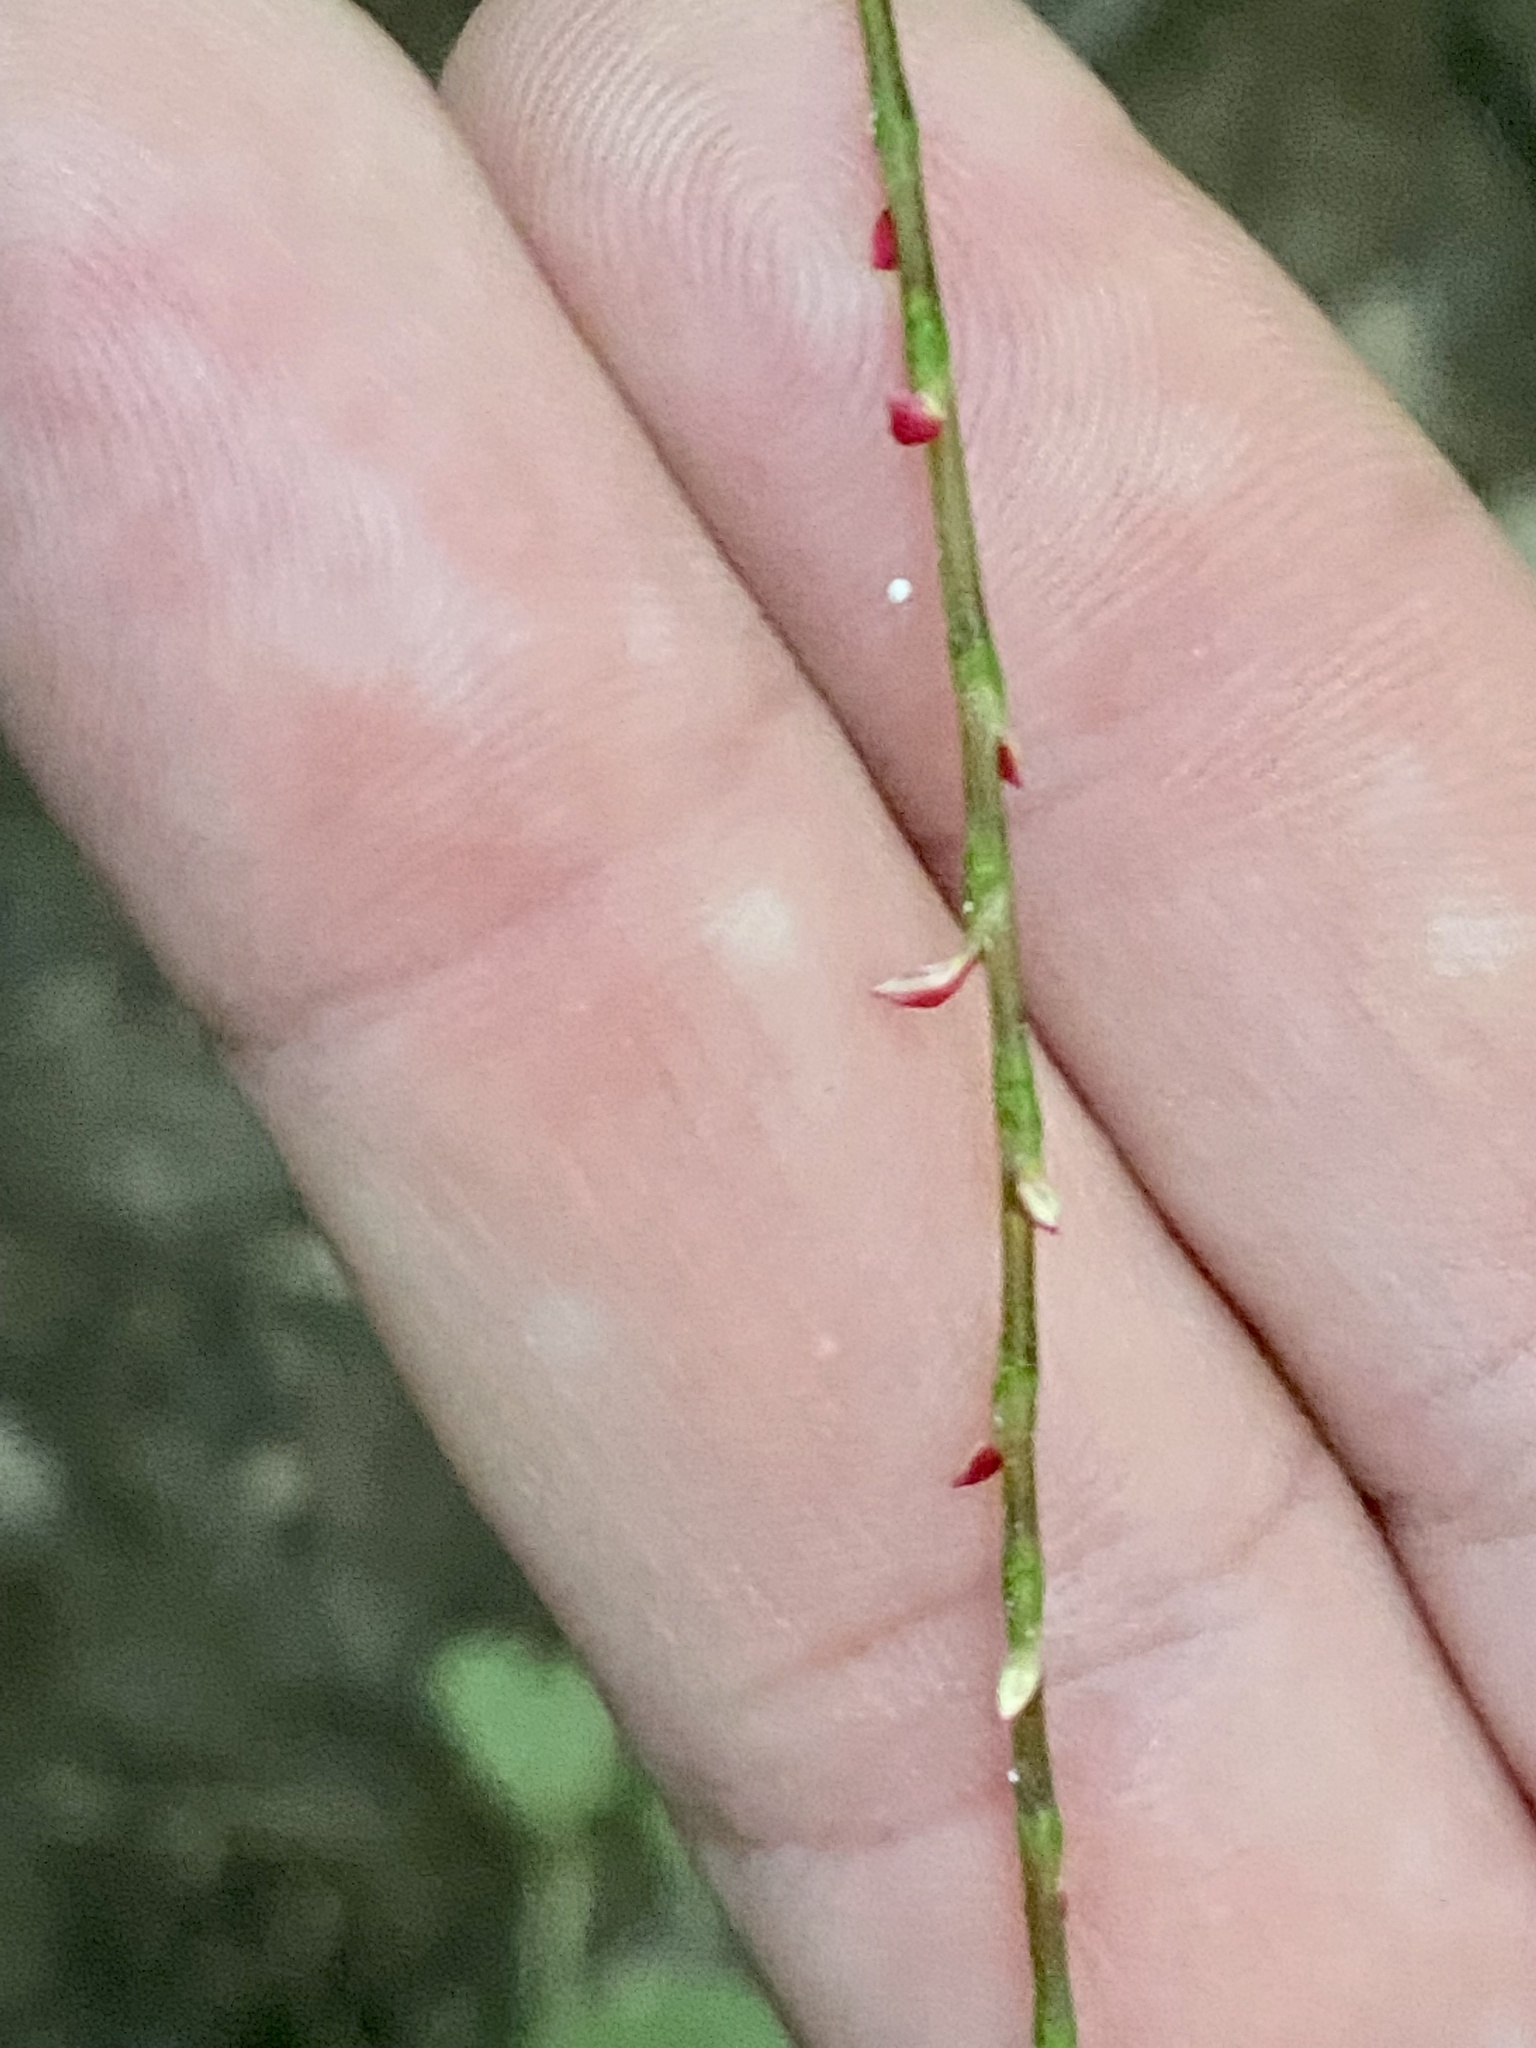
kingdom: Plantae
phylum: Tracheophyta
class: Magnoliopsida
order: Caryophyllales
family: Polygonaceae
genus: Persicaria
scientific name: Persicaria filiformis
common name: Asian jumpseed
